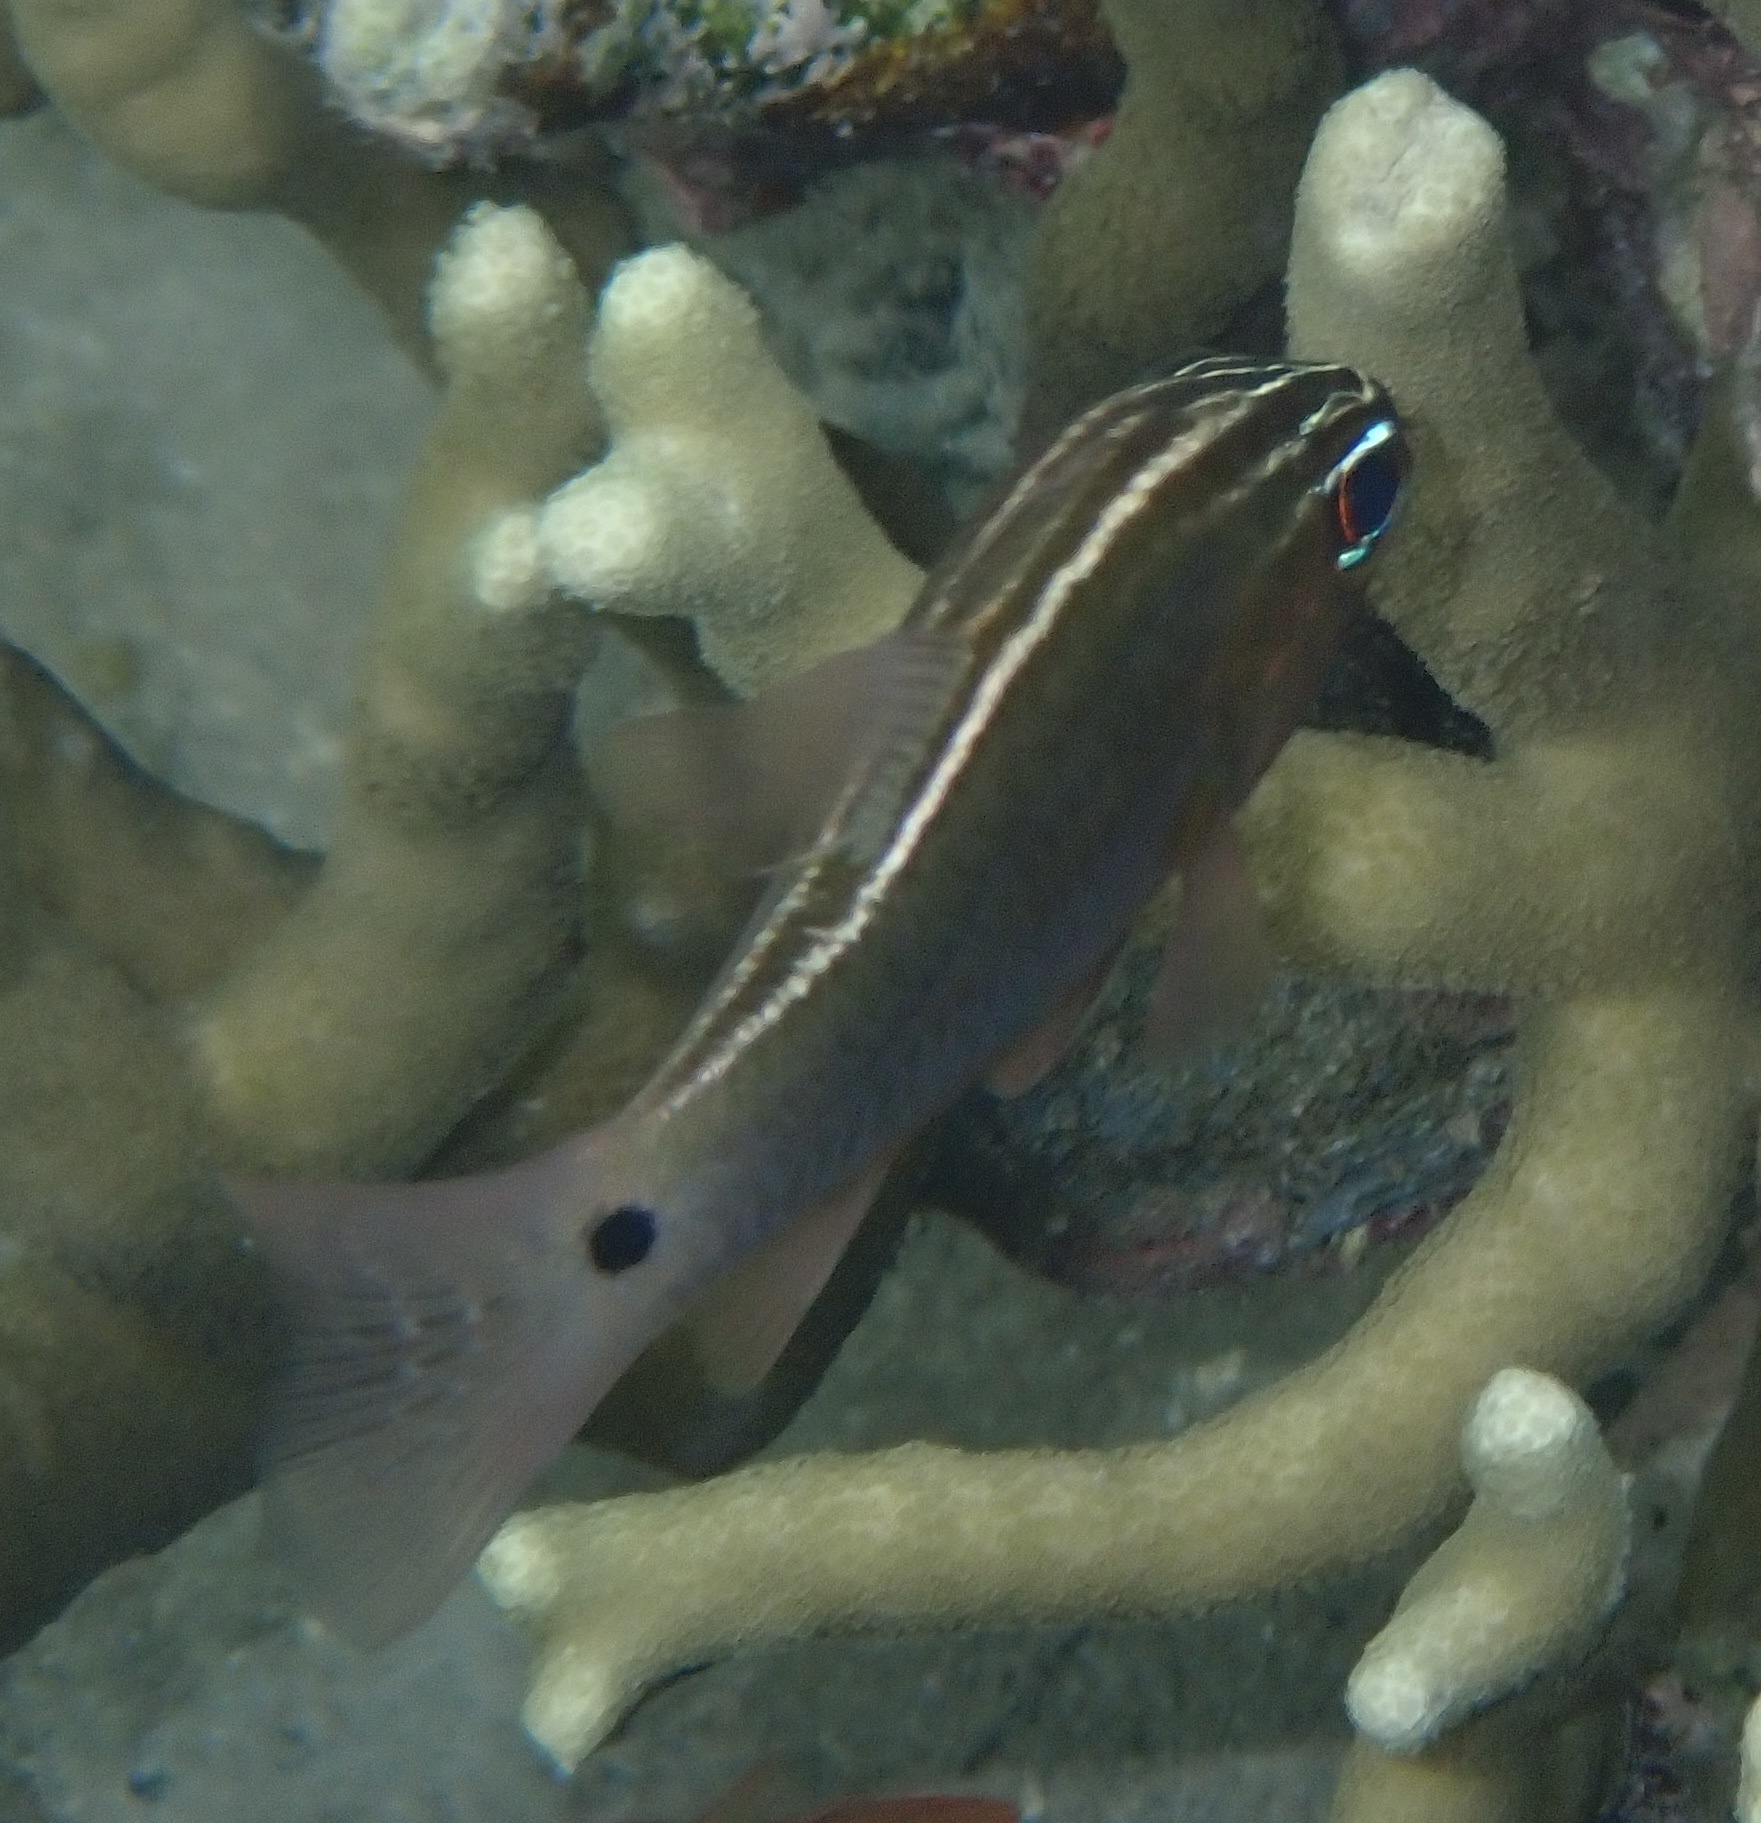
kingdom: Animalia
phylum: Chordata
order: Perciformes
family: Apogonidae
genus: Ostorhinchus
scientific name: Ostorhinchus hartzfeldii
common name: Hartzfeld's cardinalfish
